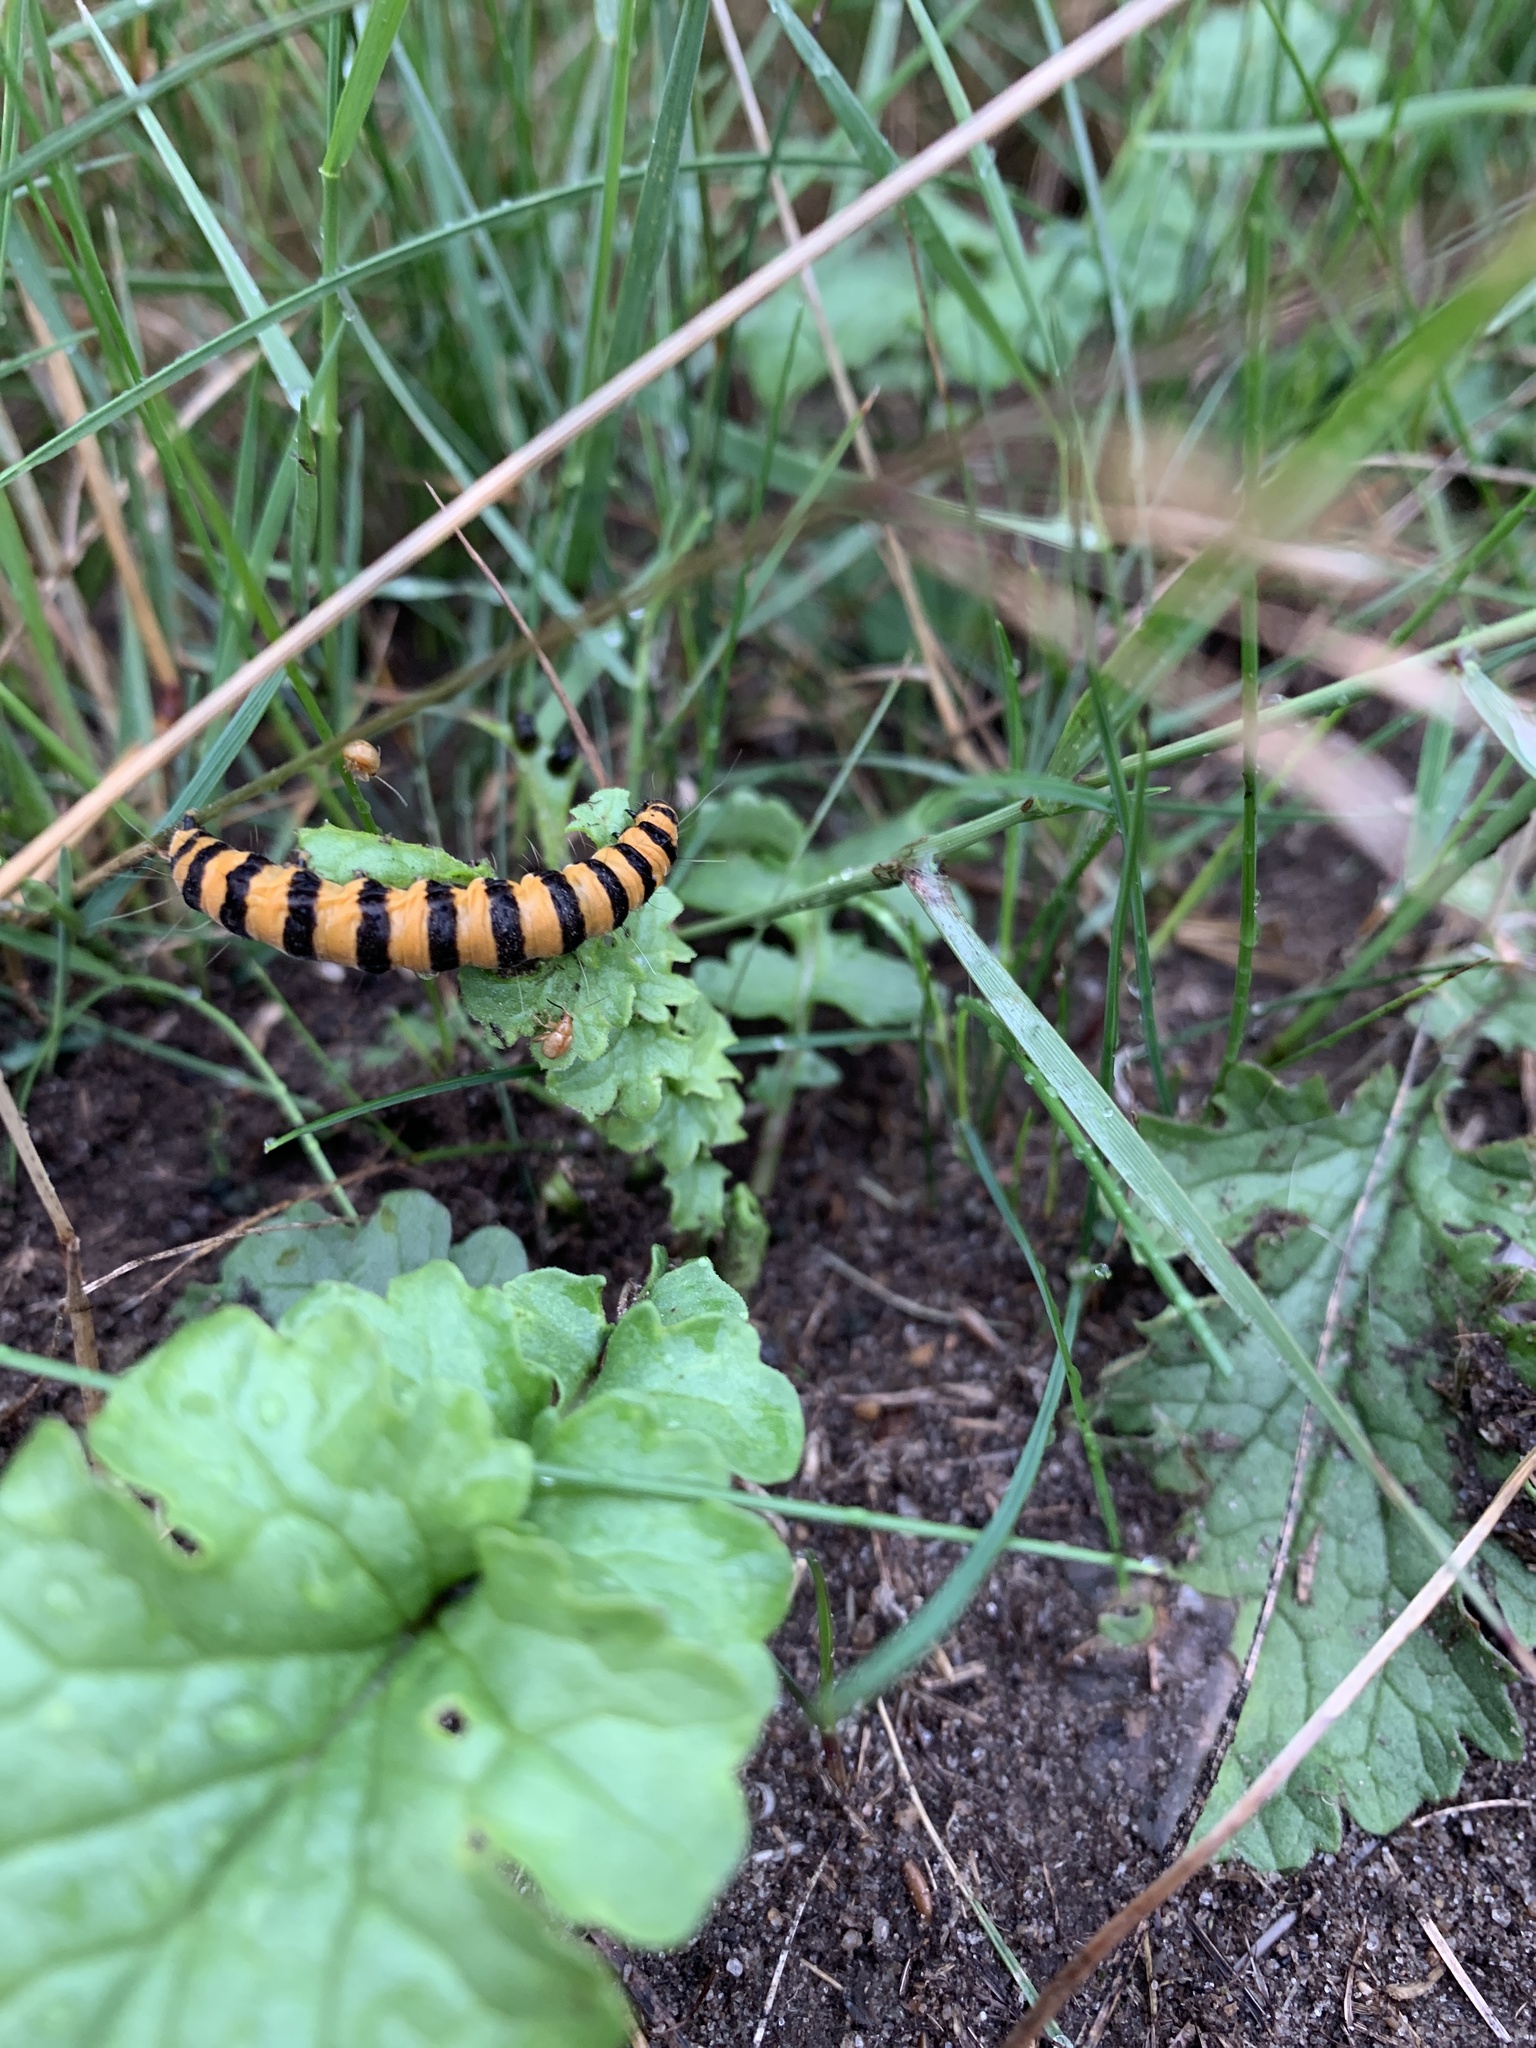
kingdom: Animalia
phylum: Arthropoda
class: Insecta
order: Lepidoptera
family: Erebidae
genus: Tyria
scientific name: Tyria jacobaeae
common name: Cinnabar
